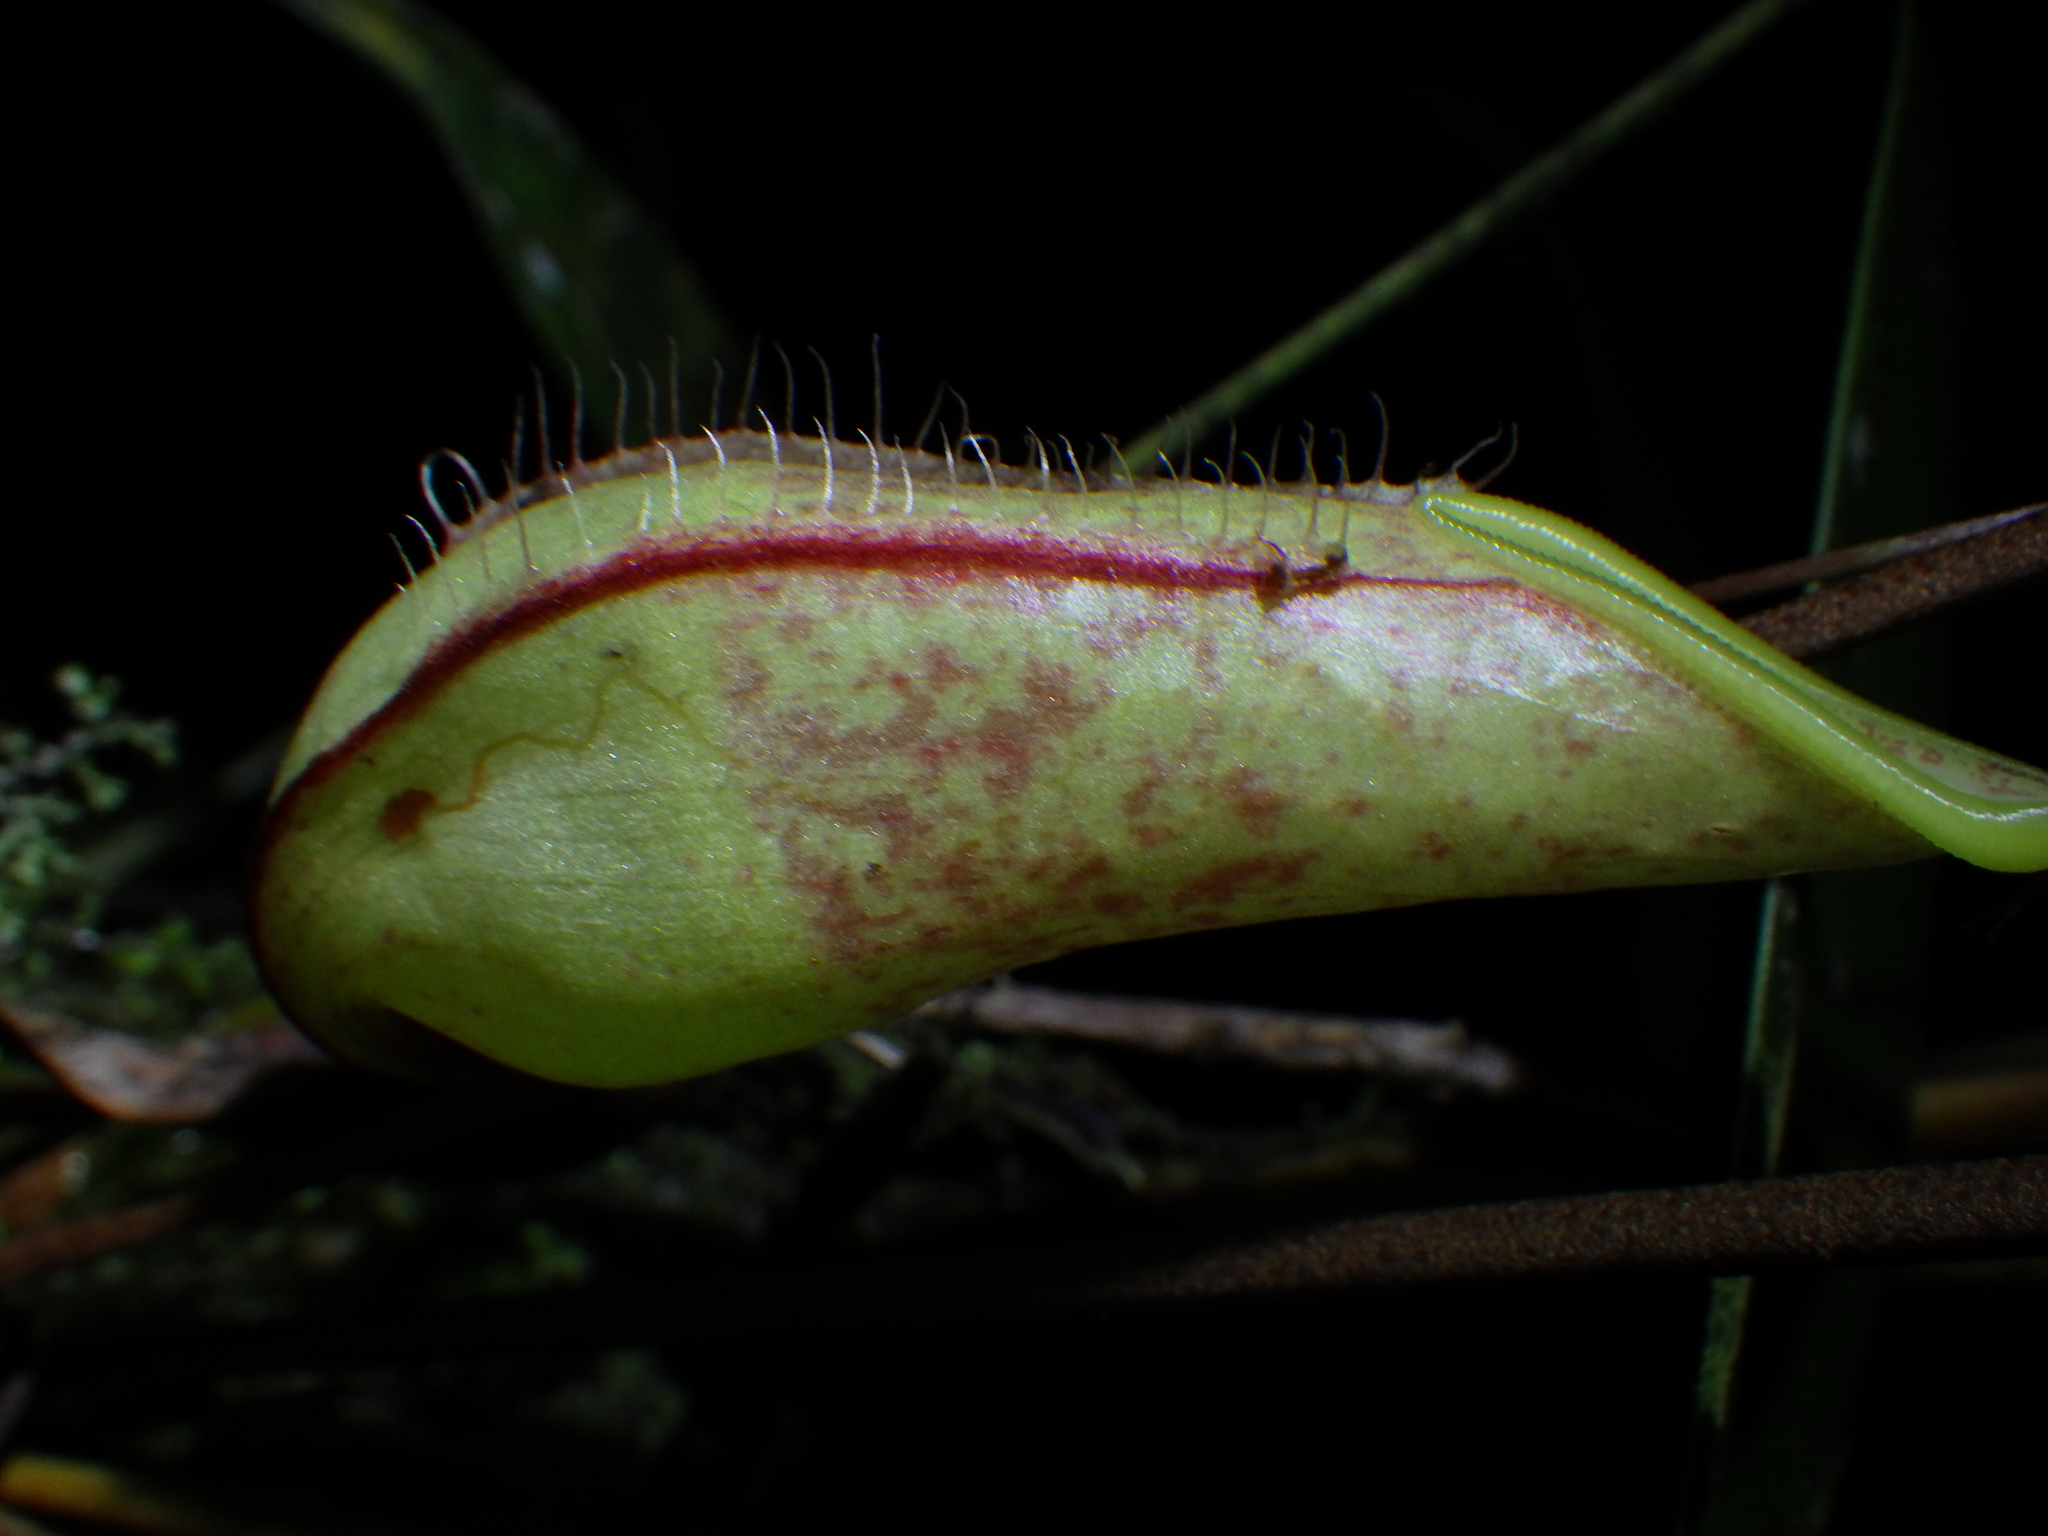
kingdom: Plantae
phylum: Tracheophyta
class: Magnoliopsida
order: Caryophyllales
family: Nepenthaceae
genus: Nepenthes
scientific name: Nepenthes tentaculata
